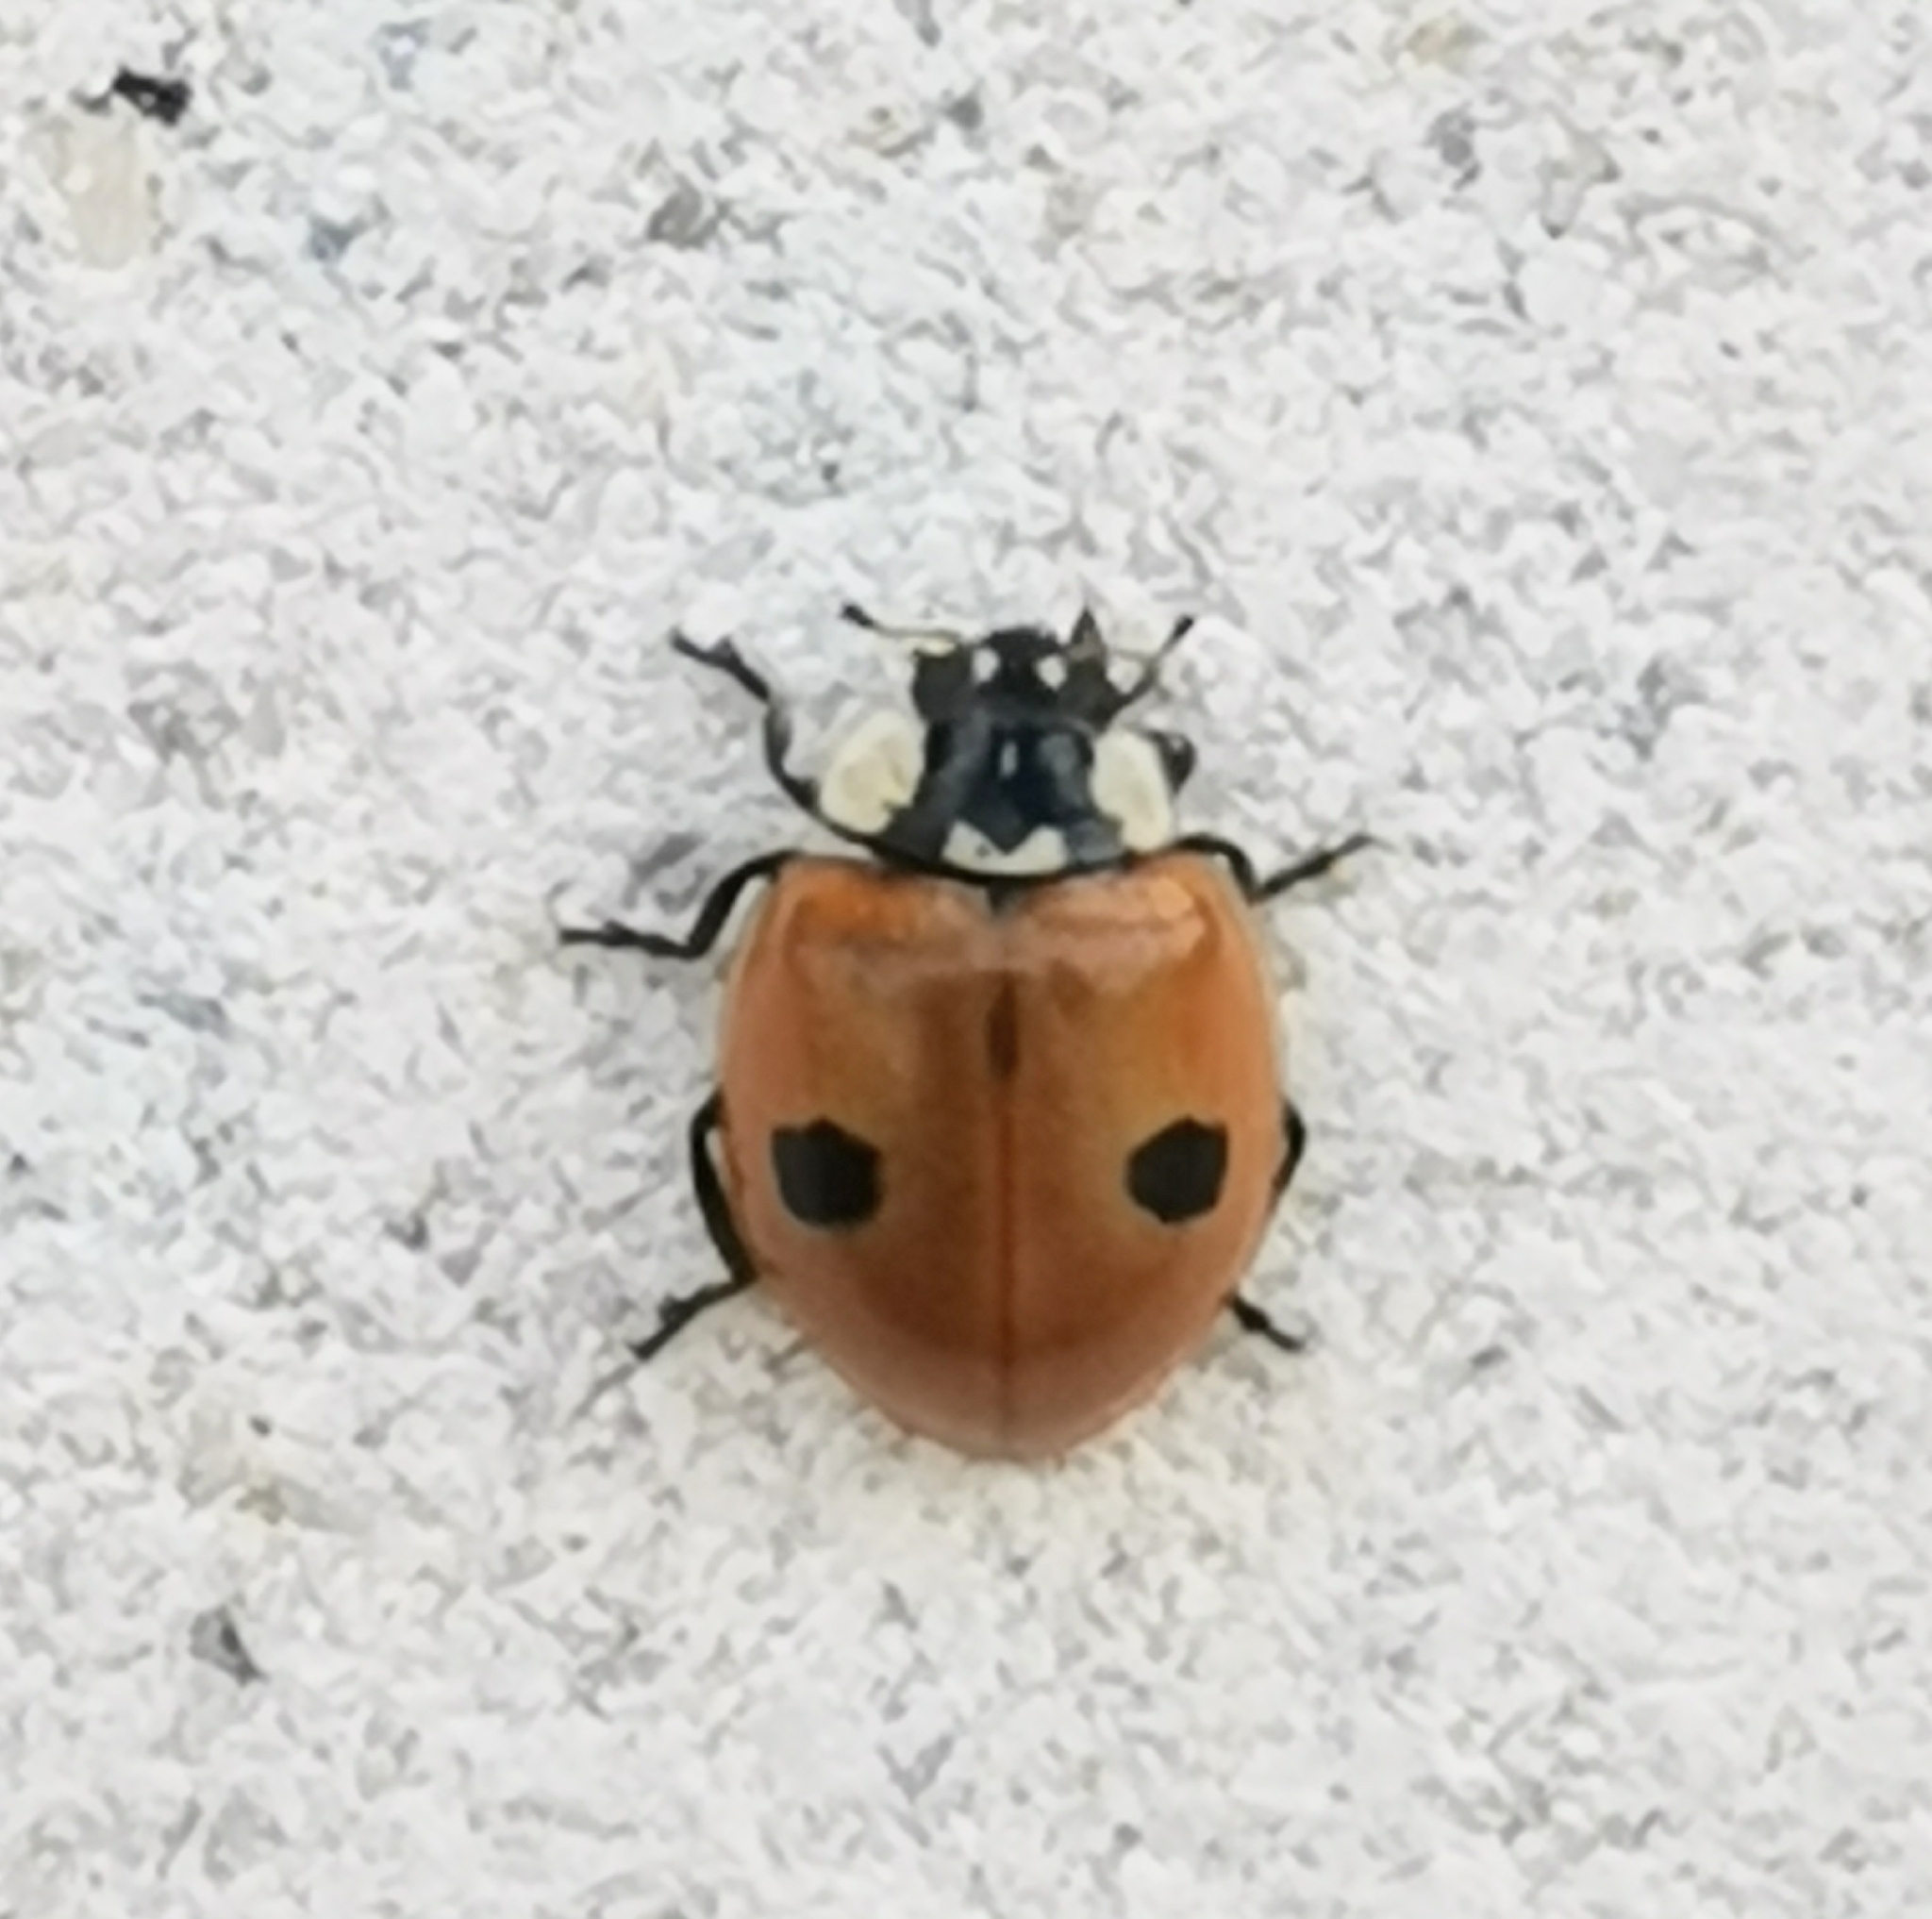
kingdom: Animalia
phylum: Arthropoda
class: Insecta
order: Coleoptera
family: Coccinellidae
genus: Adalia
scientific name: Adalia bipunctata
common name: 2-spot ladybird
